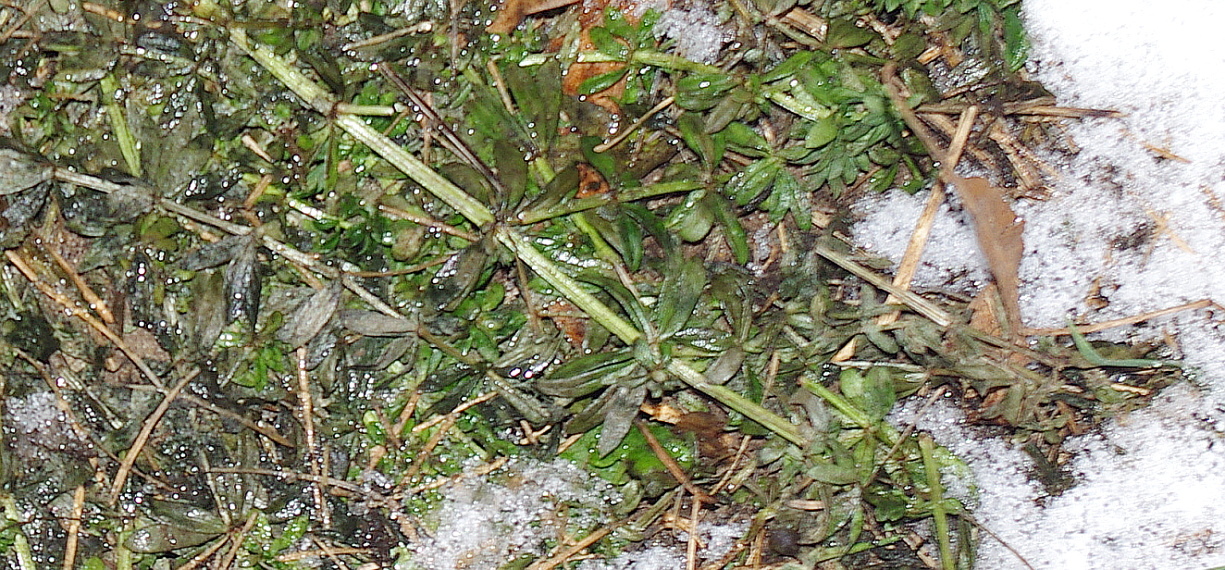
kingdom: Plantae
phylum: Tracheophyta
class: Magnoliopsida
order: Gentianales
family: Rubiaceae
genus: Galium
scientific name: Galium mollugo
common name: Hedge bedstraw
